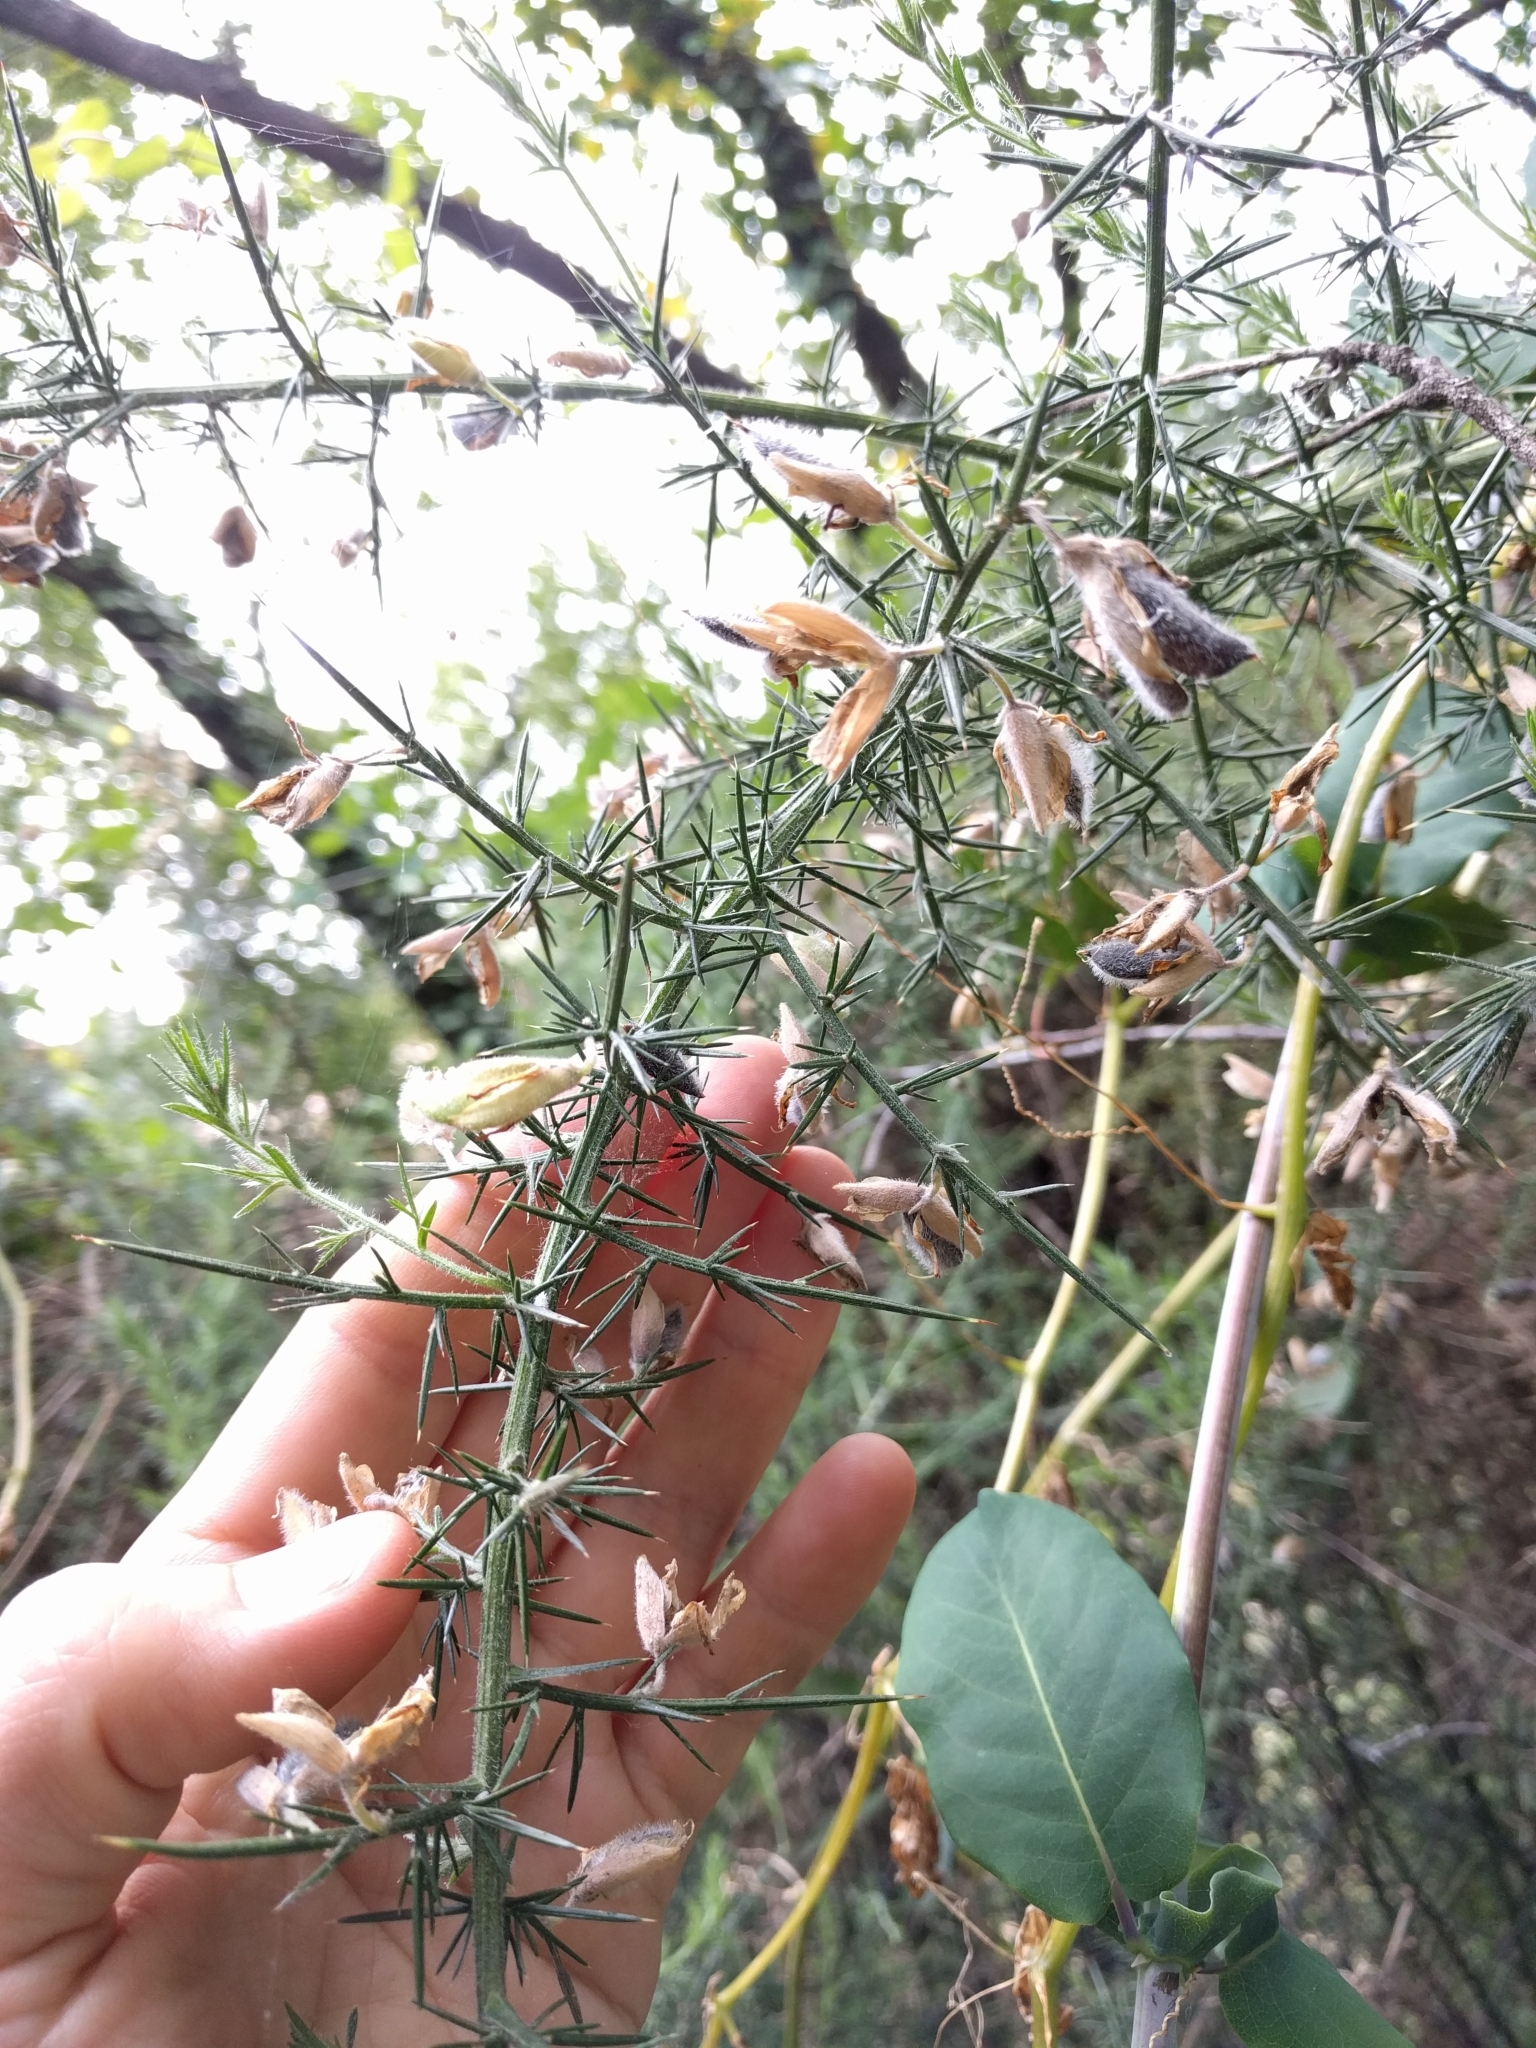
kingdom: Plantae
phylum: Tracheophyta
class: Magnoliopsida
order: Fabales
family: Fabaceae
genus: Ulex
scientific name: Ulex europaeus
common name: Common gorse
